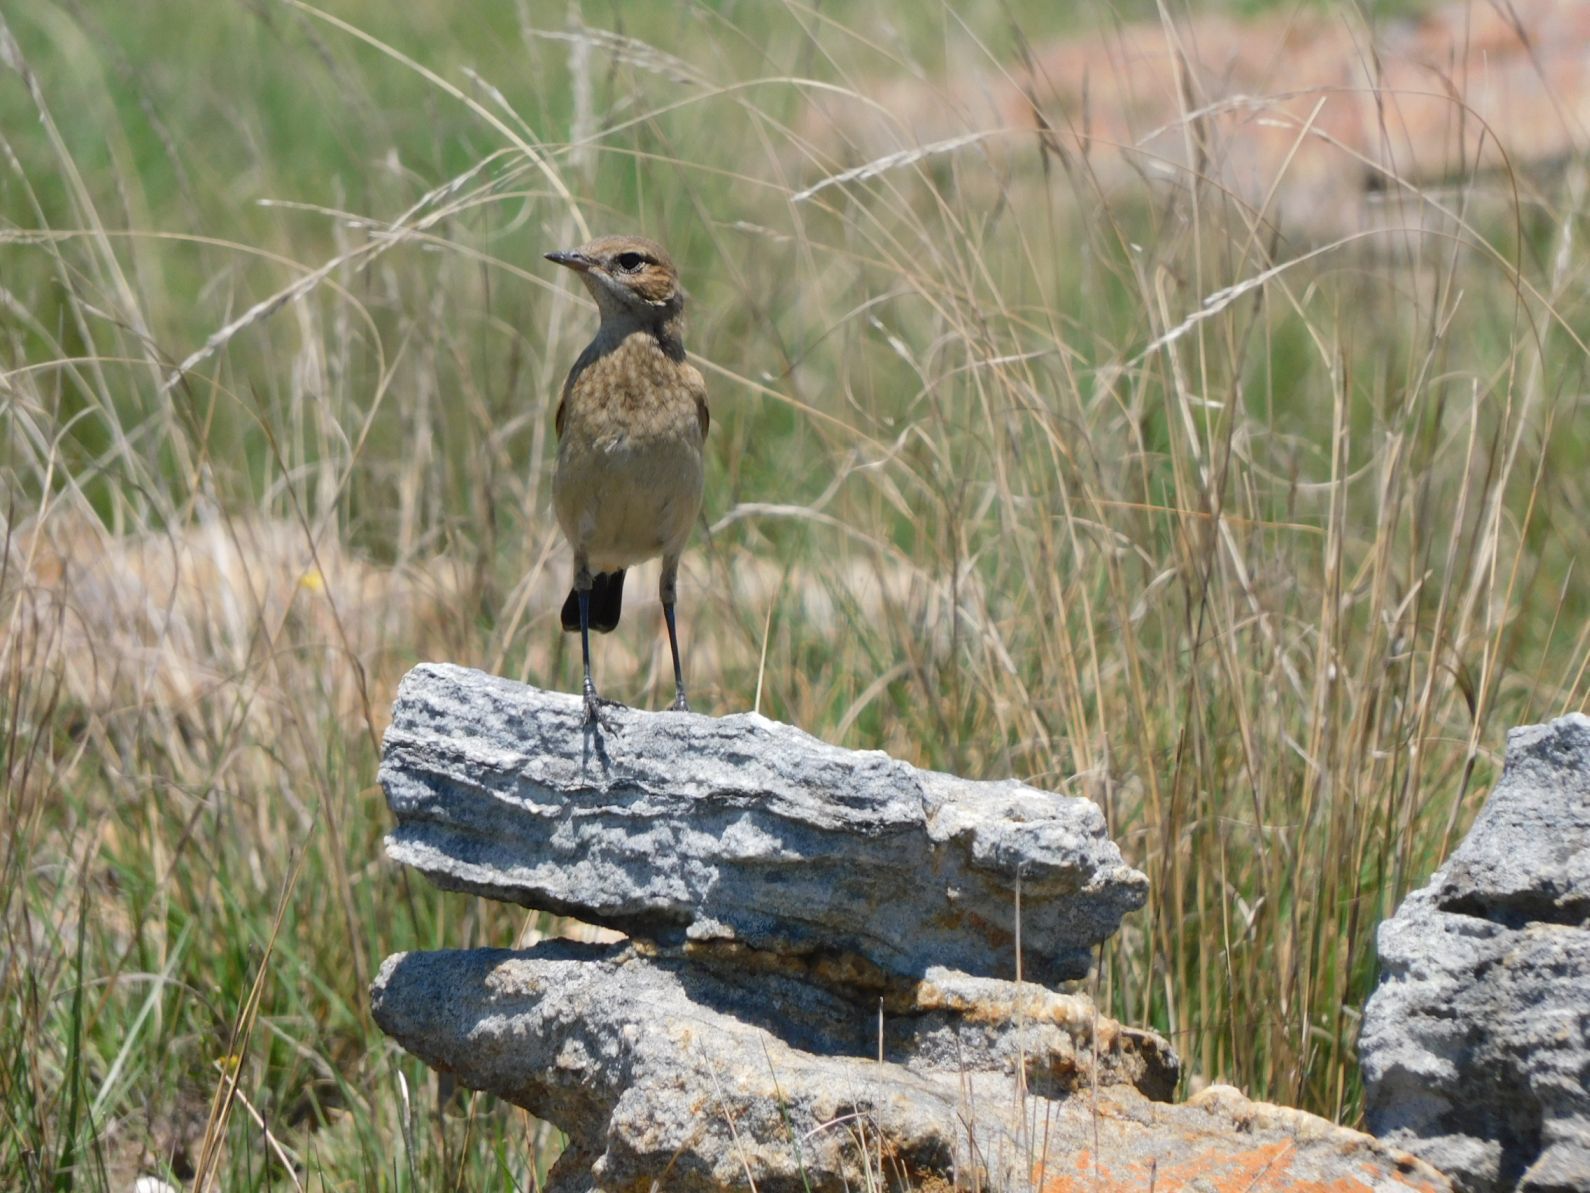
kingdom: Animalia
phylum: Chordata
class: Aves
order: Passeriformes
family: Muscicapidae
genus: Oenanthe
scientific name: Oenanthe pileata
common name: Capped wheatear
